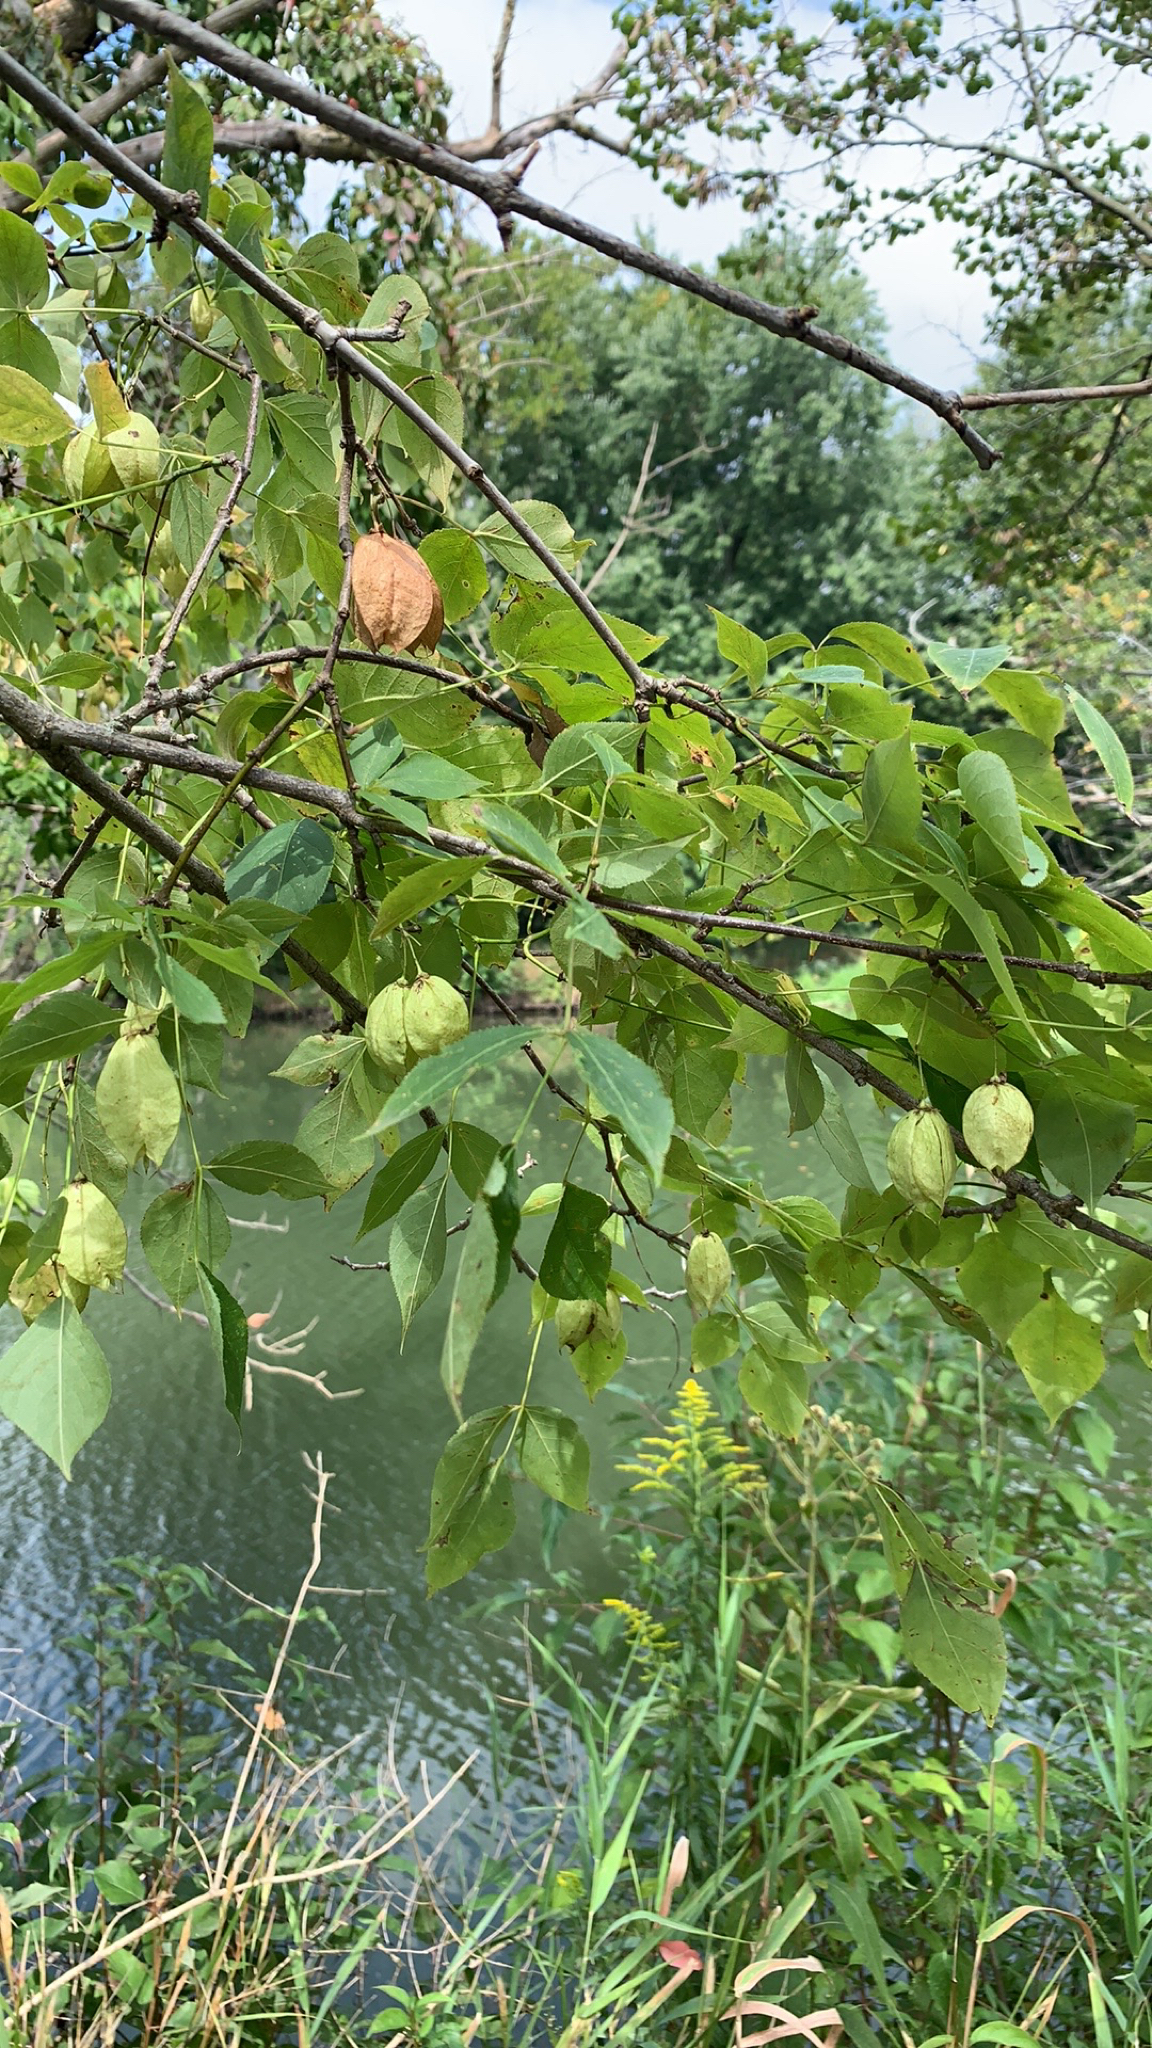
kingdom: Plantae
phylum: Tracheophyta
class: Magnoliopsida
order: Crossosomatales
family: Staphyleaceae
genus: Staphylea
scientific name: Staphylea trifolia
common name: American bladdernut
